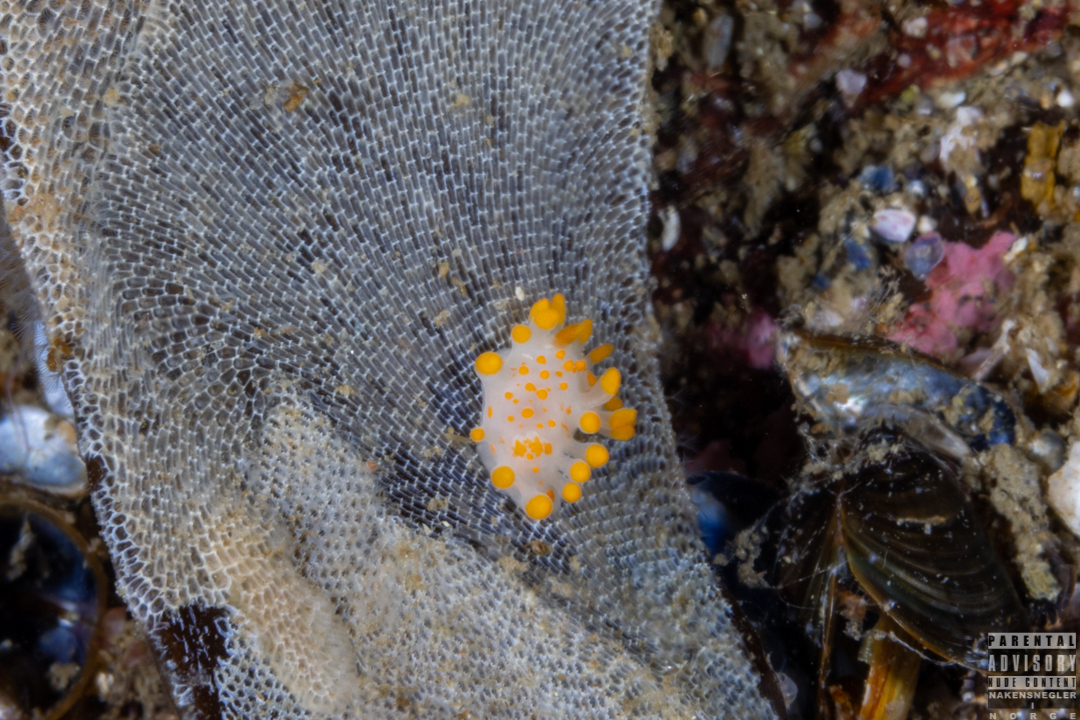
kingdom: Animalia
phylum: Mollusca
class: Gastropoda
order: Nudibranchia
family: Polyceridae
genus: Limacia
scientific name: Limacia clavigera
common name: Orange-clubbed sea slug
